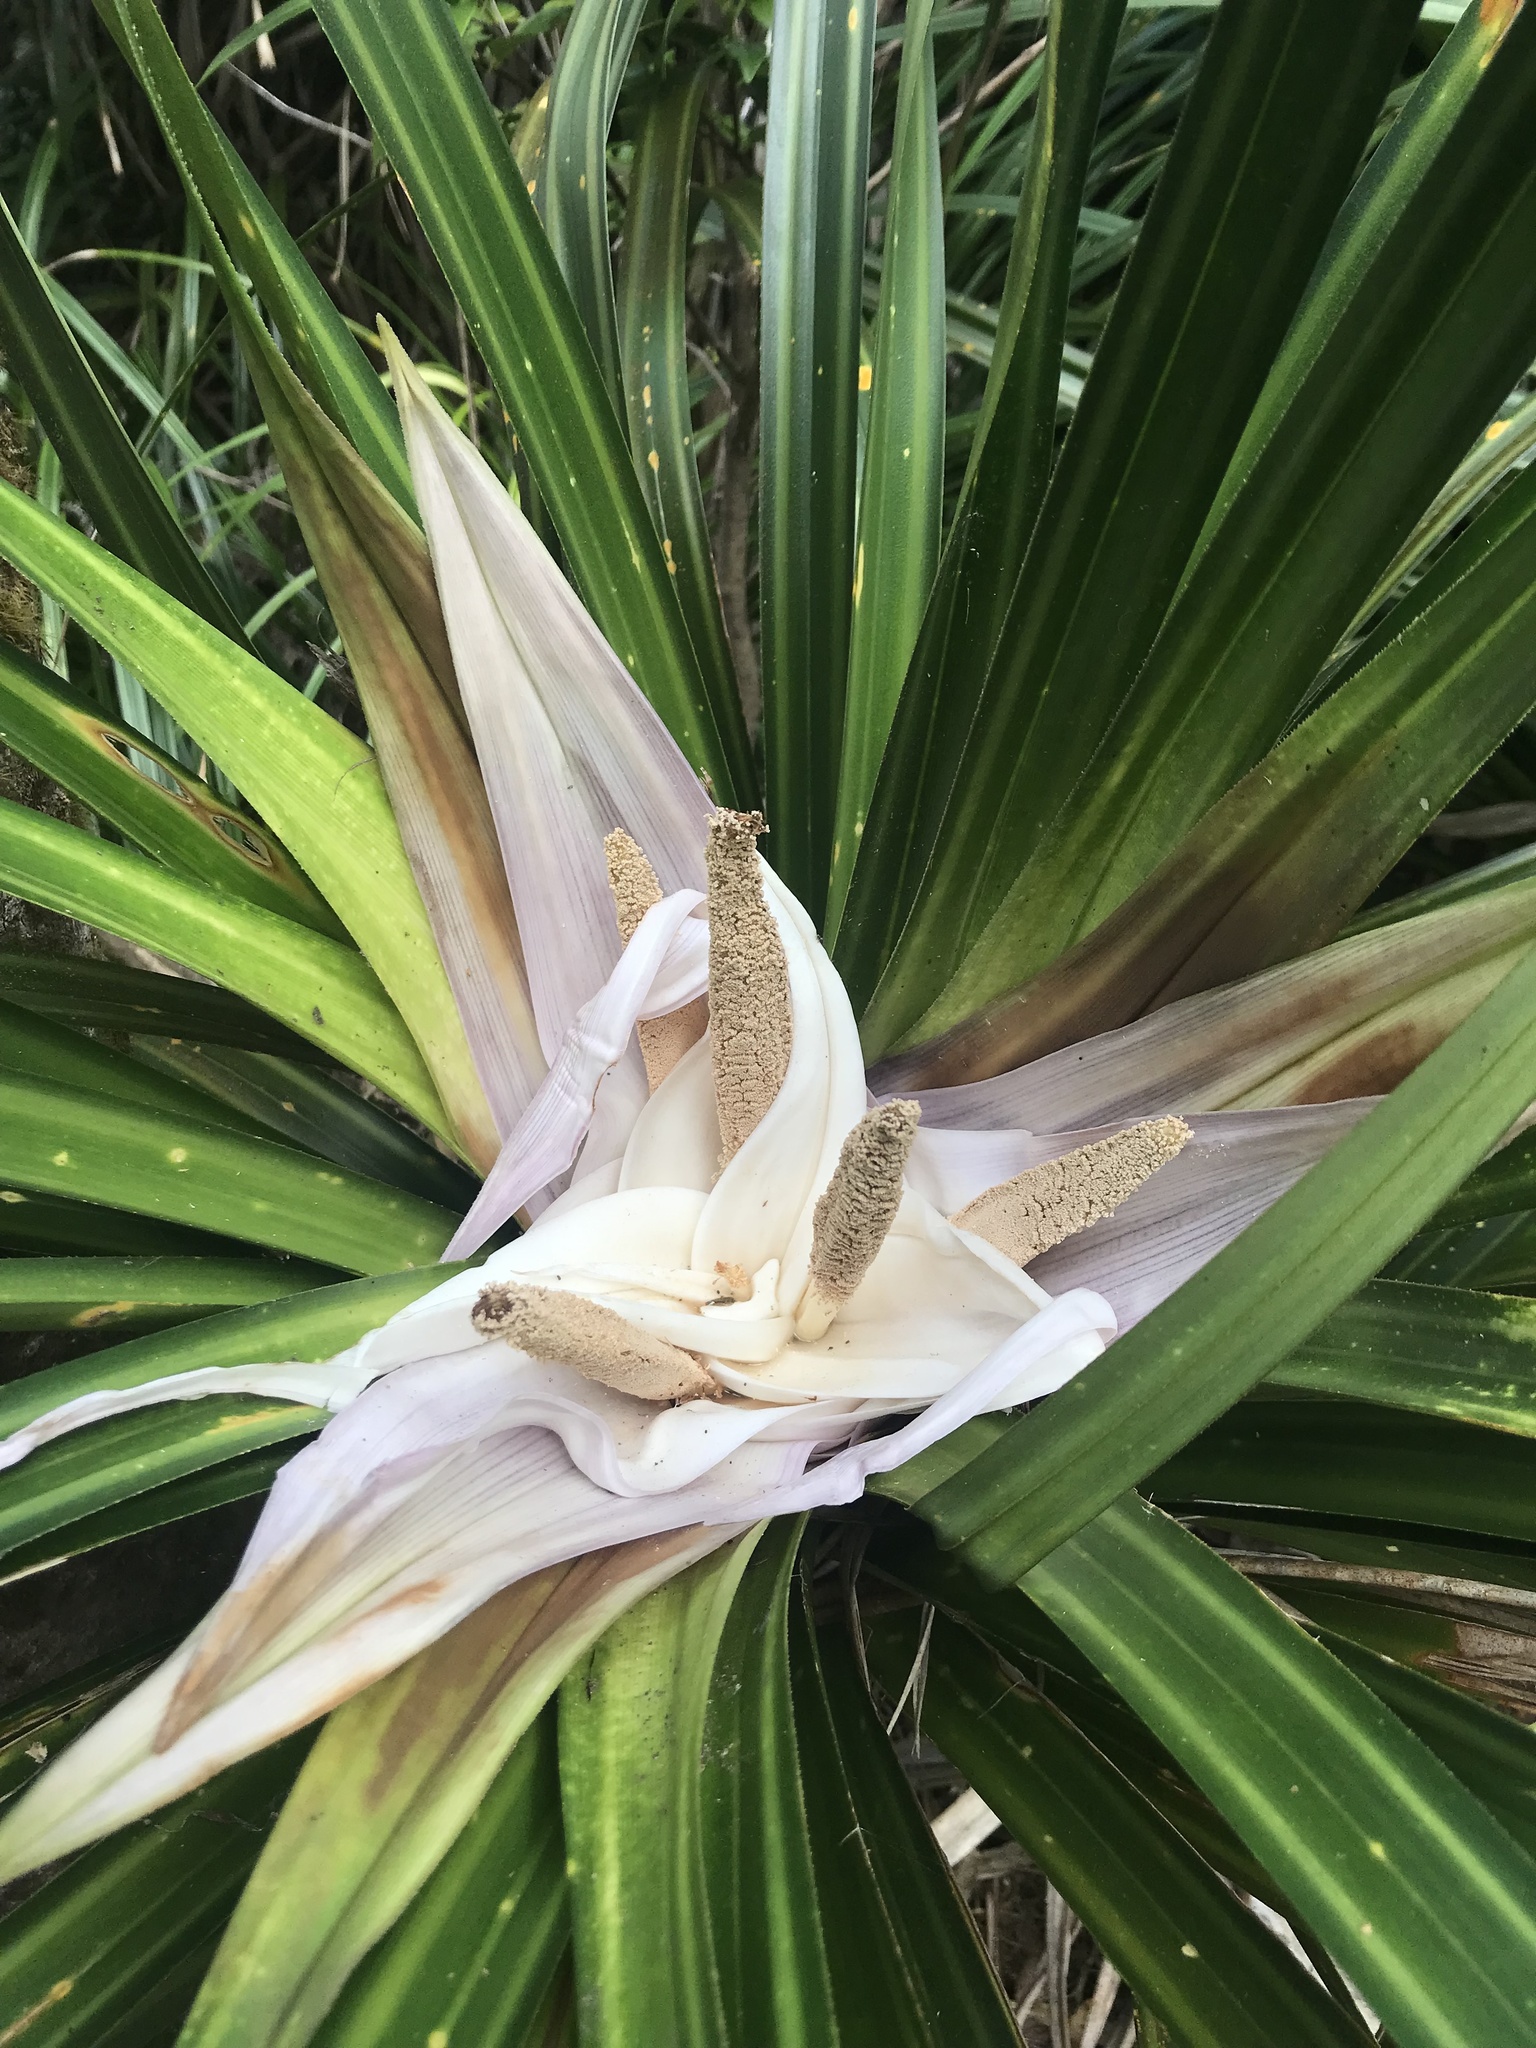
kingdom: Plantae
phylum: Tracheophyta
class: Liliopsida
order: Pandanales
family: Pandanaceae
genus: Freycinetia
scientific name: Freycinetia banksii
